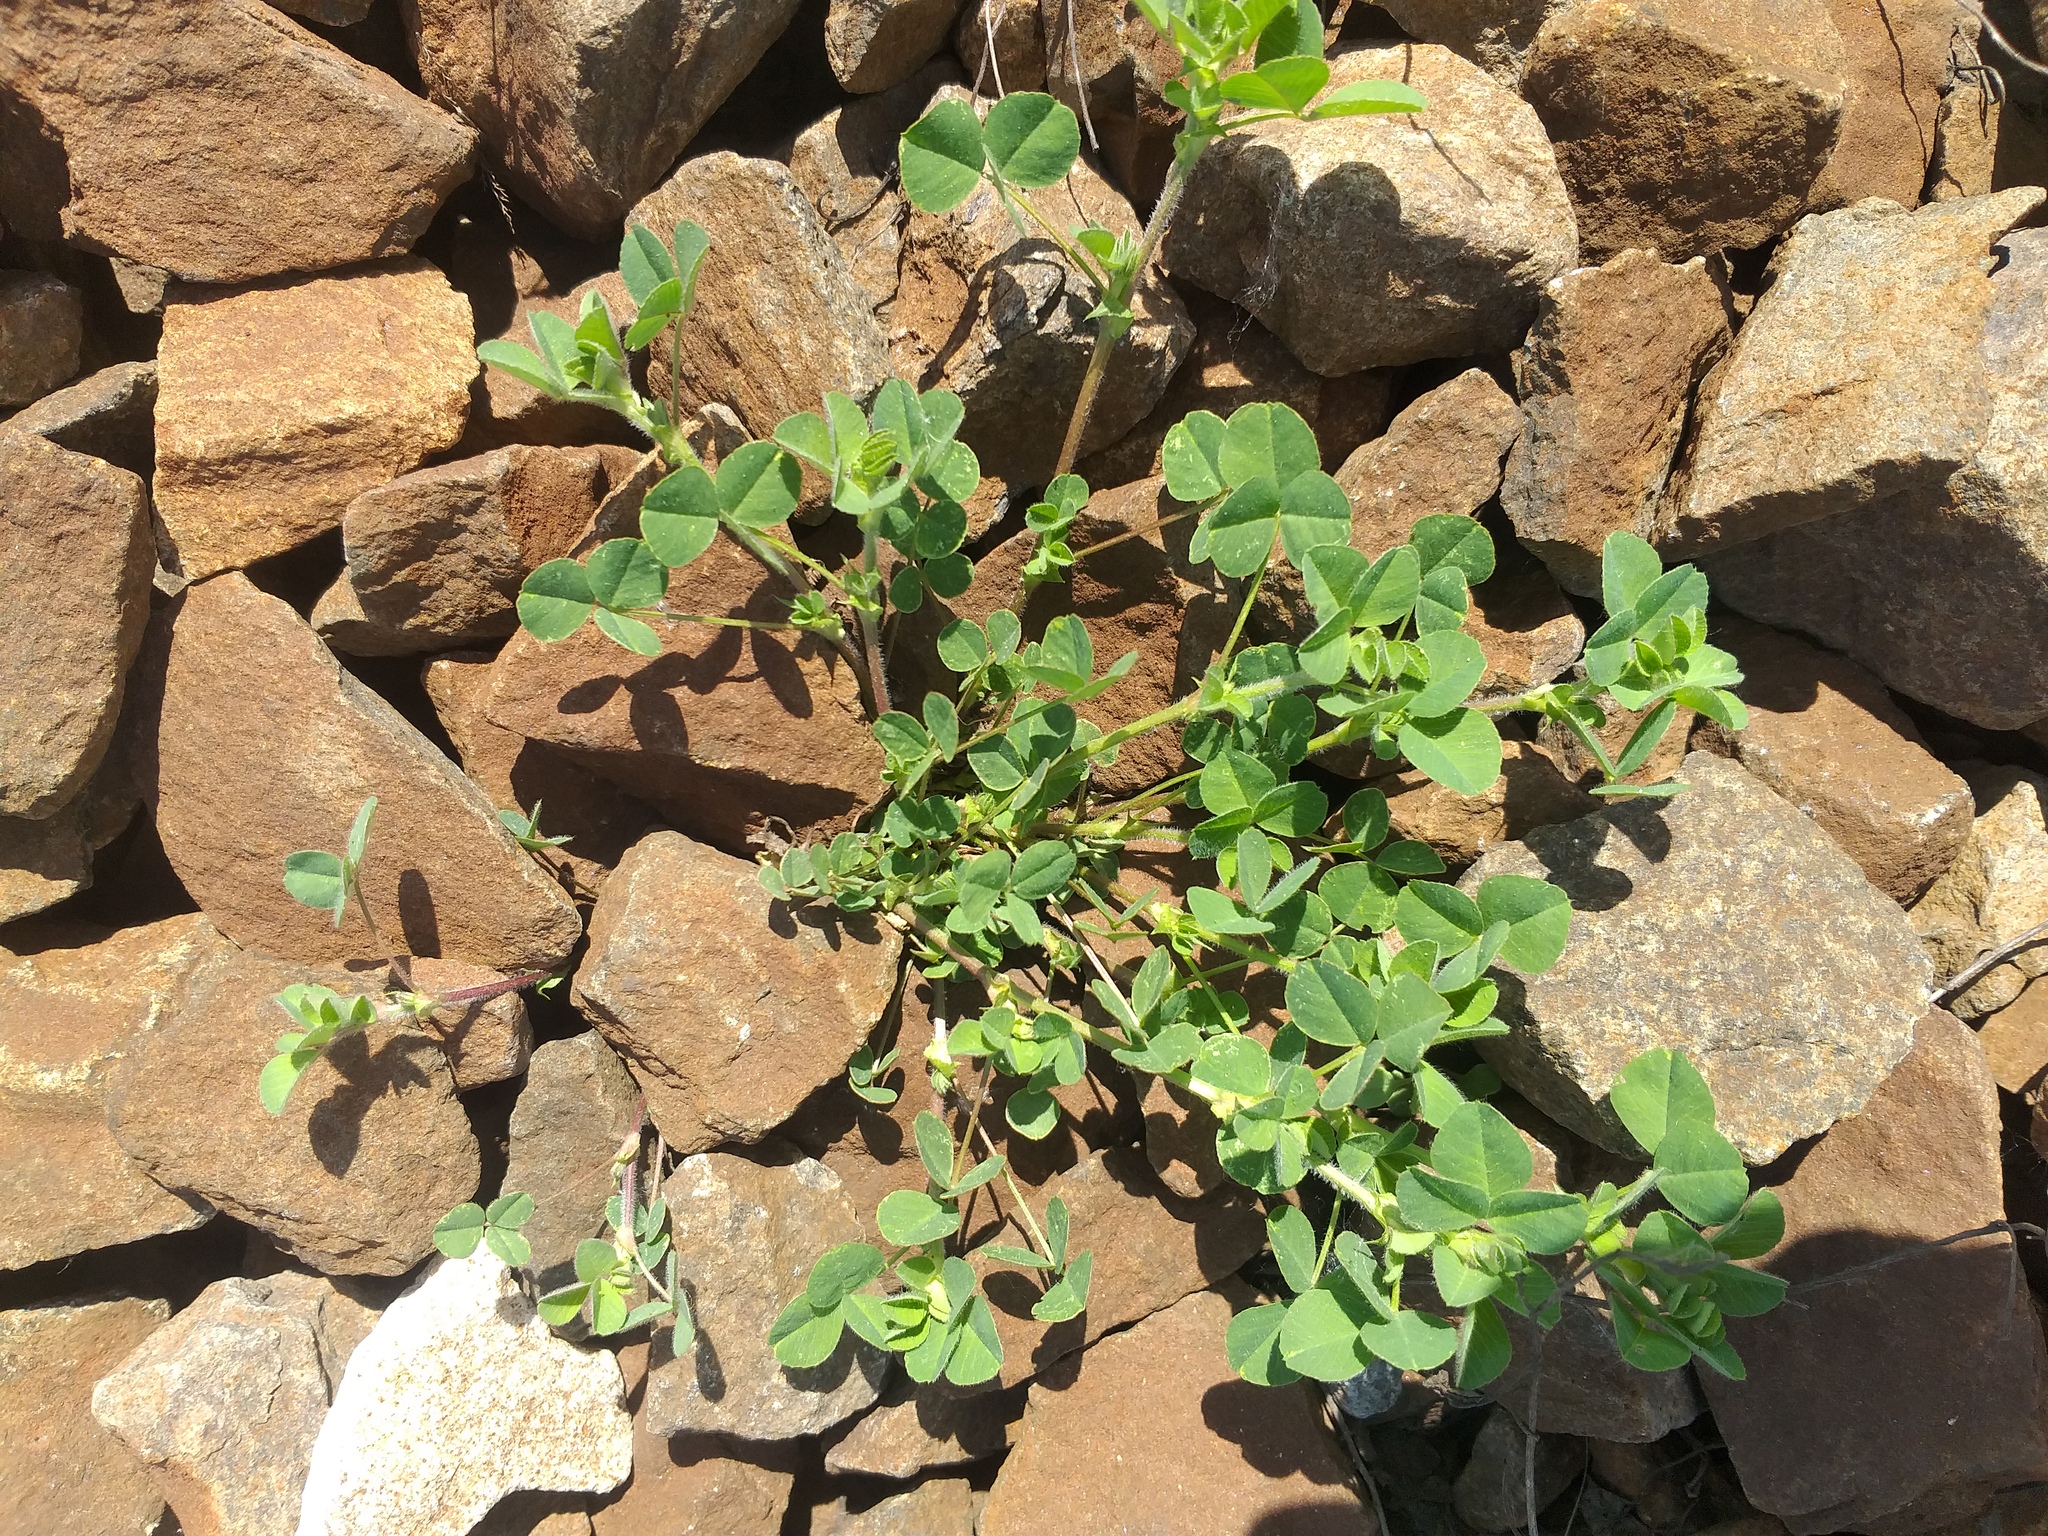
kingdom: Plantae
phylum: Tracheophyta
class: Magnoliopsida
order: Fabales
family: Fabaceae
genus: Medicago
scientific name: Medicago lupulina
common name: Black medick
